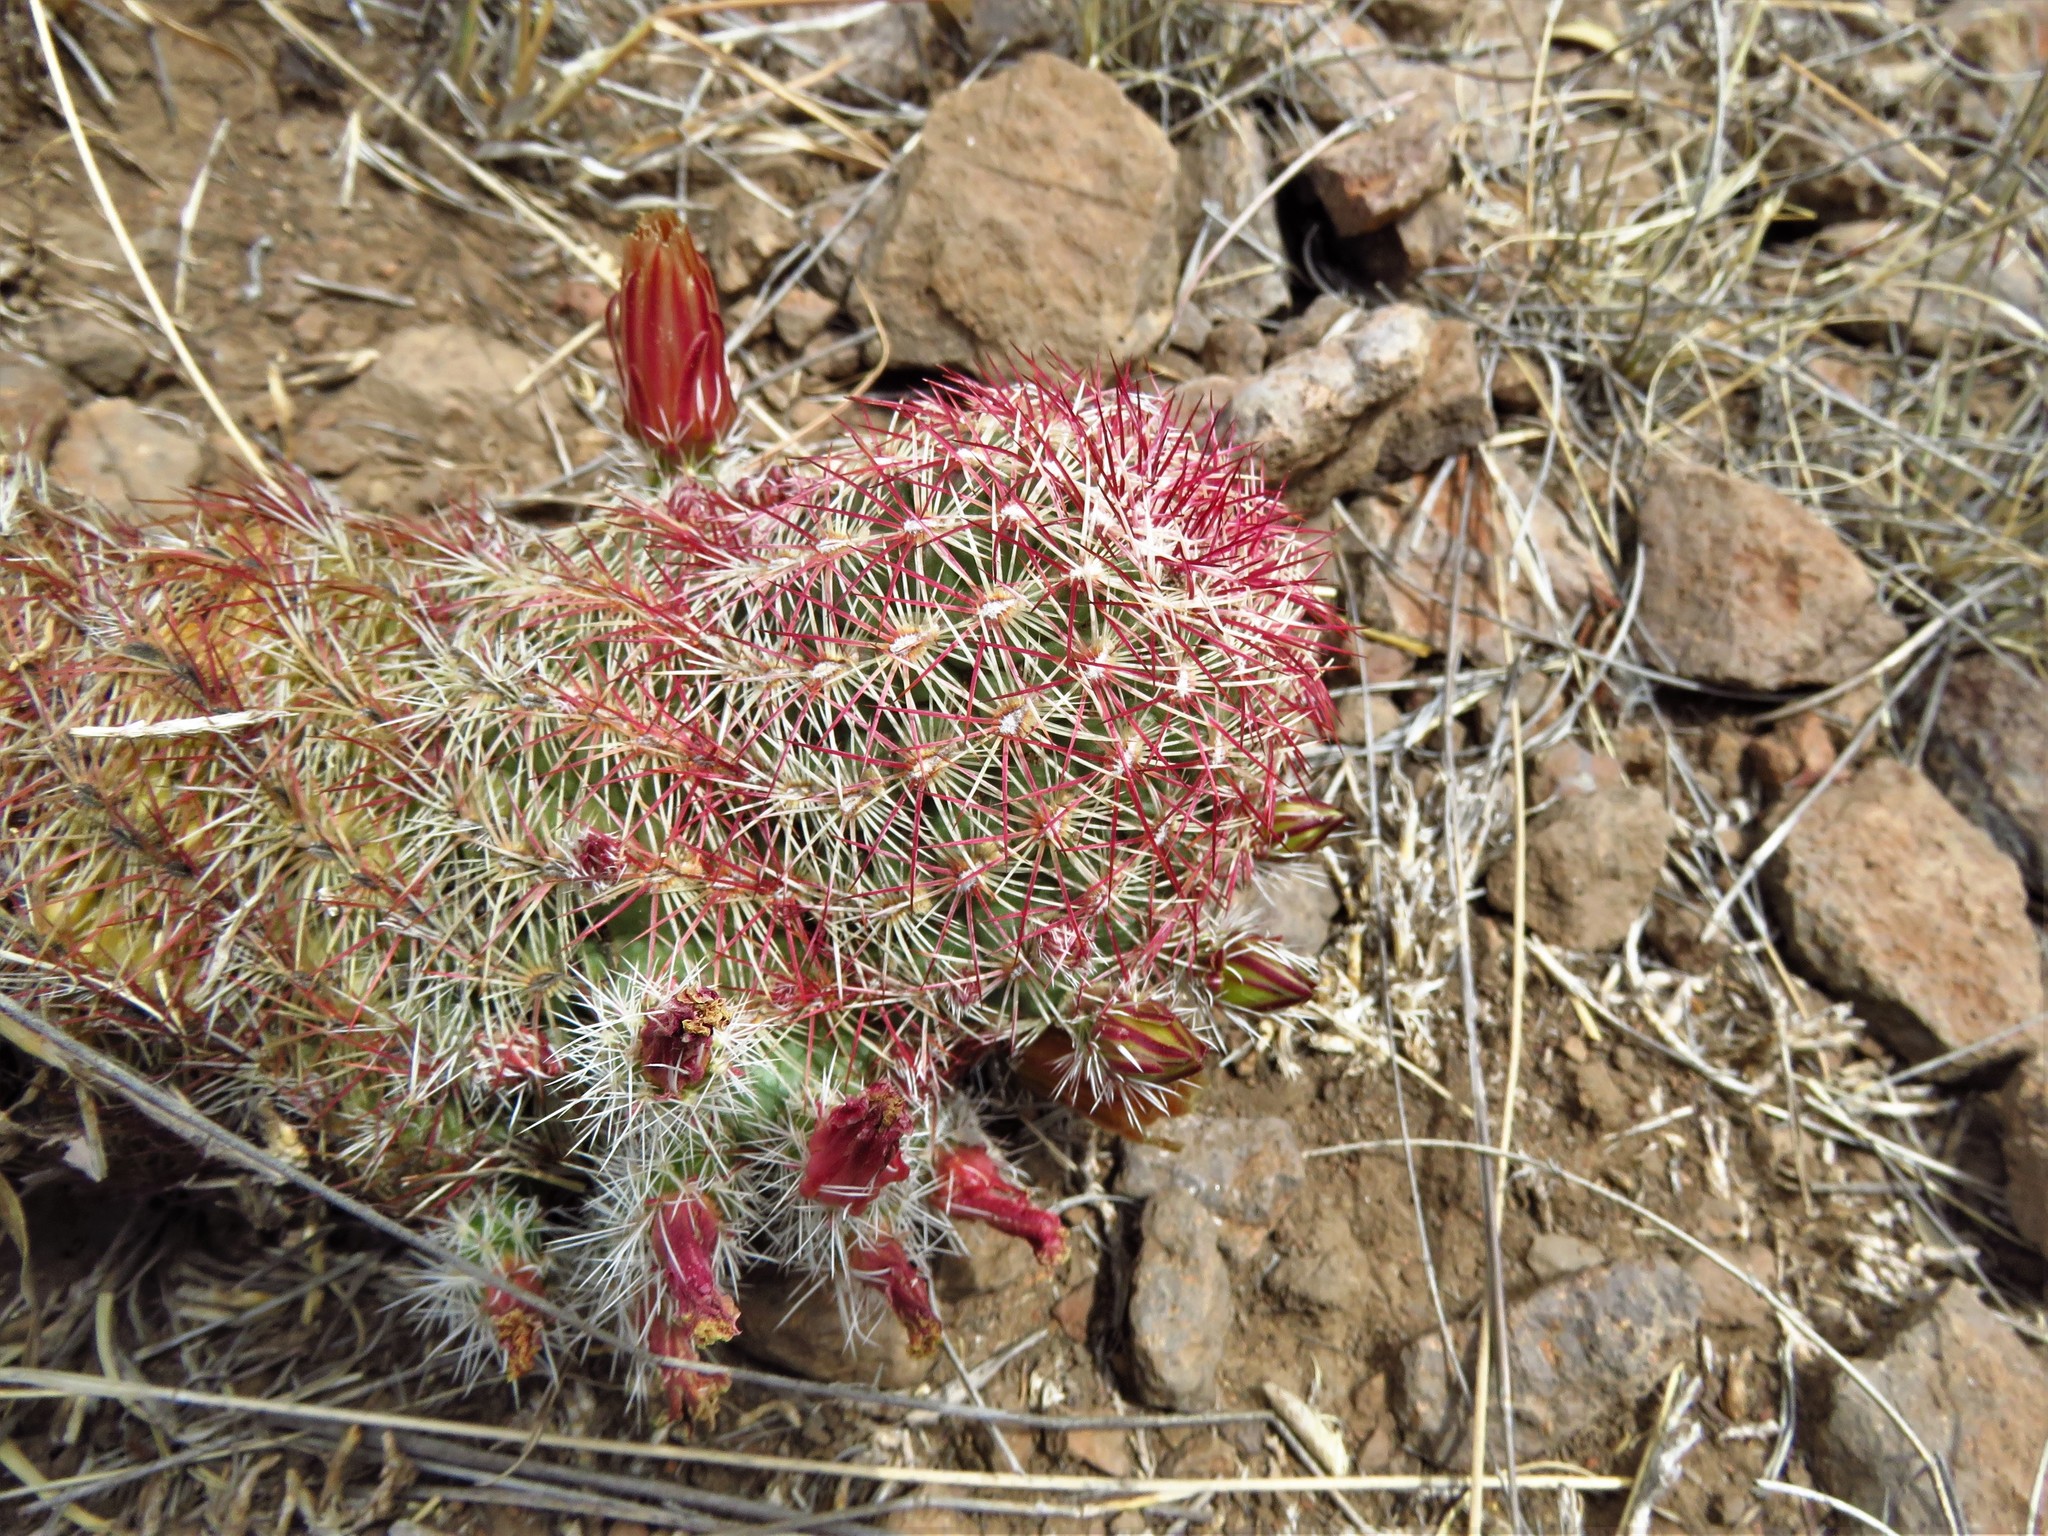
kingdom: Plantae
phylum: Tracheophyta
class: Magnoliopsida
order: Caryophyllales
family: Cactaceae
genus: Echinocereus
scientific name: Echinocereus viridiflorus
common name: Nylon hedgehog cactus
